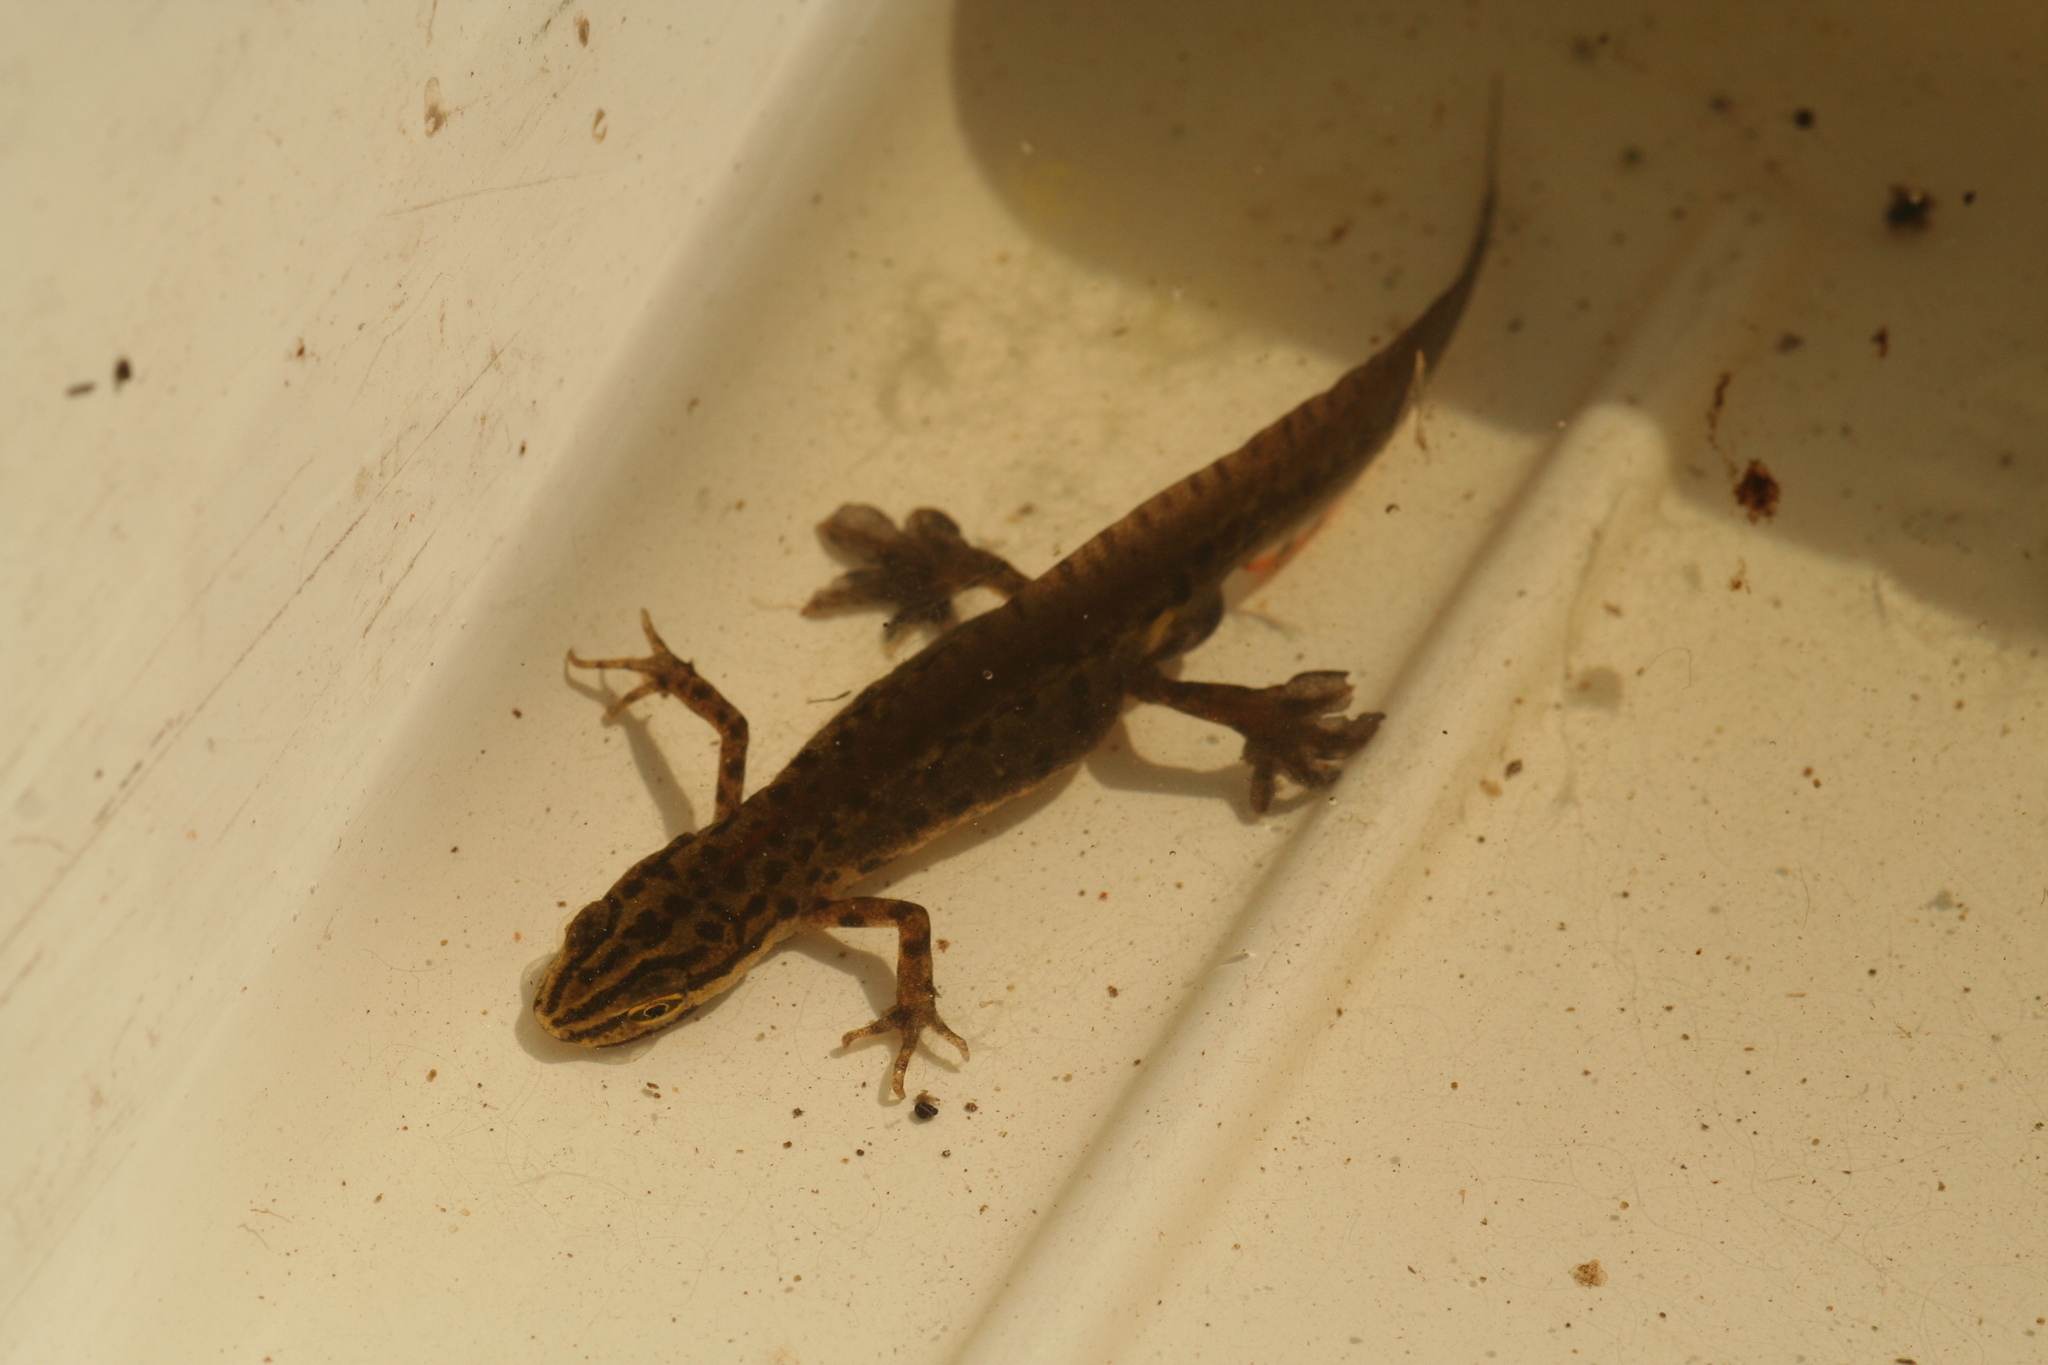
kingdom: Animalia
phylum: Chordata
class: Amphibia
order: Caudata
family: Salamandridae
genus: Lissotriton
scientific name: Lissotriton vulgaris
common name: Smooth newt
